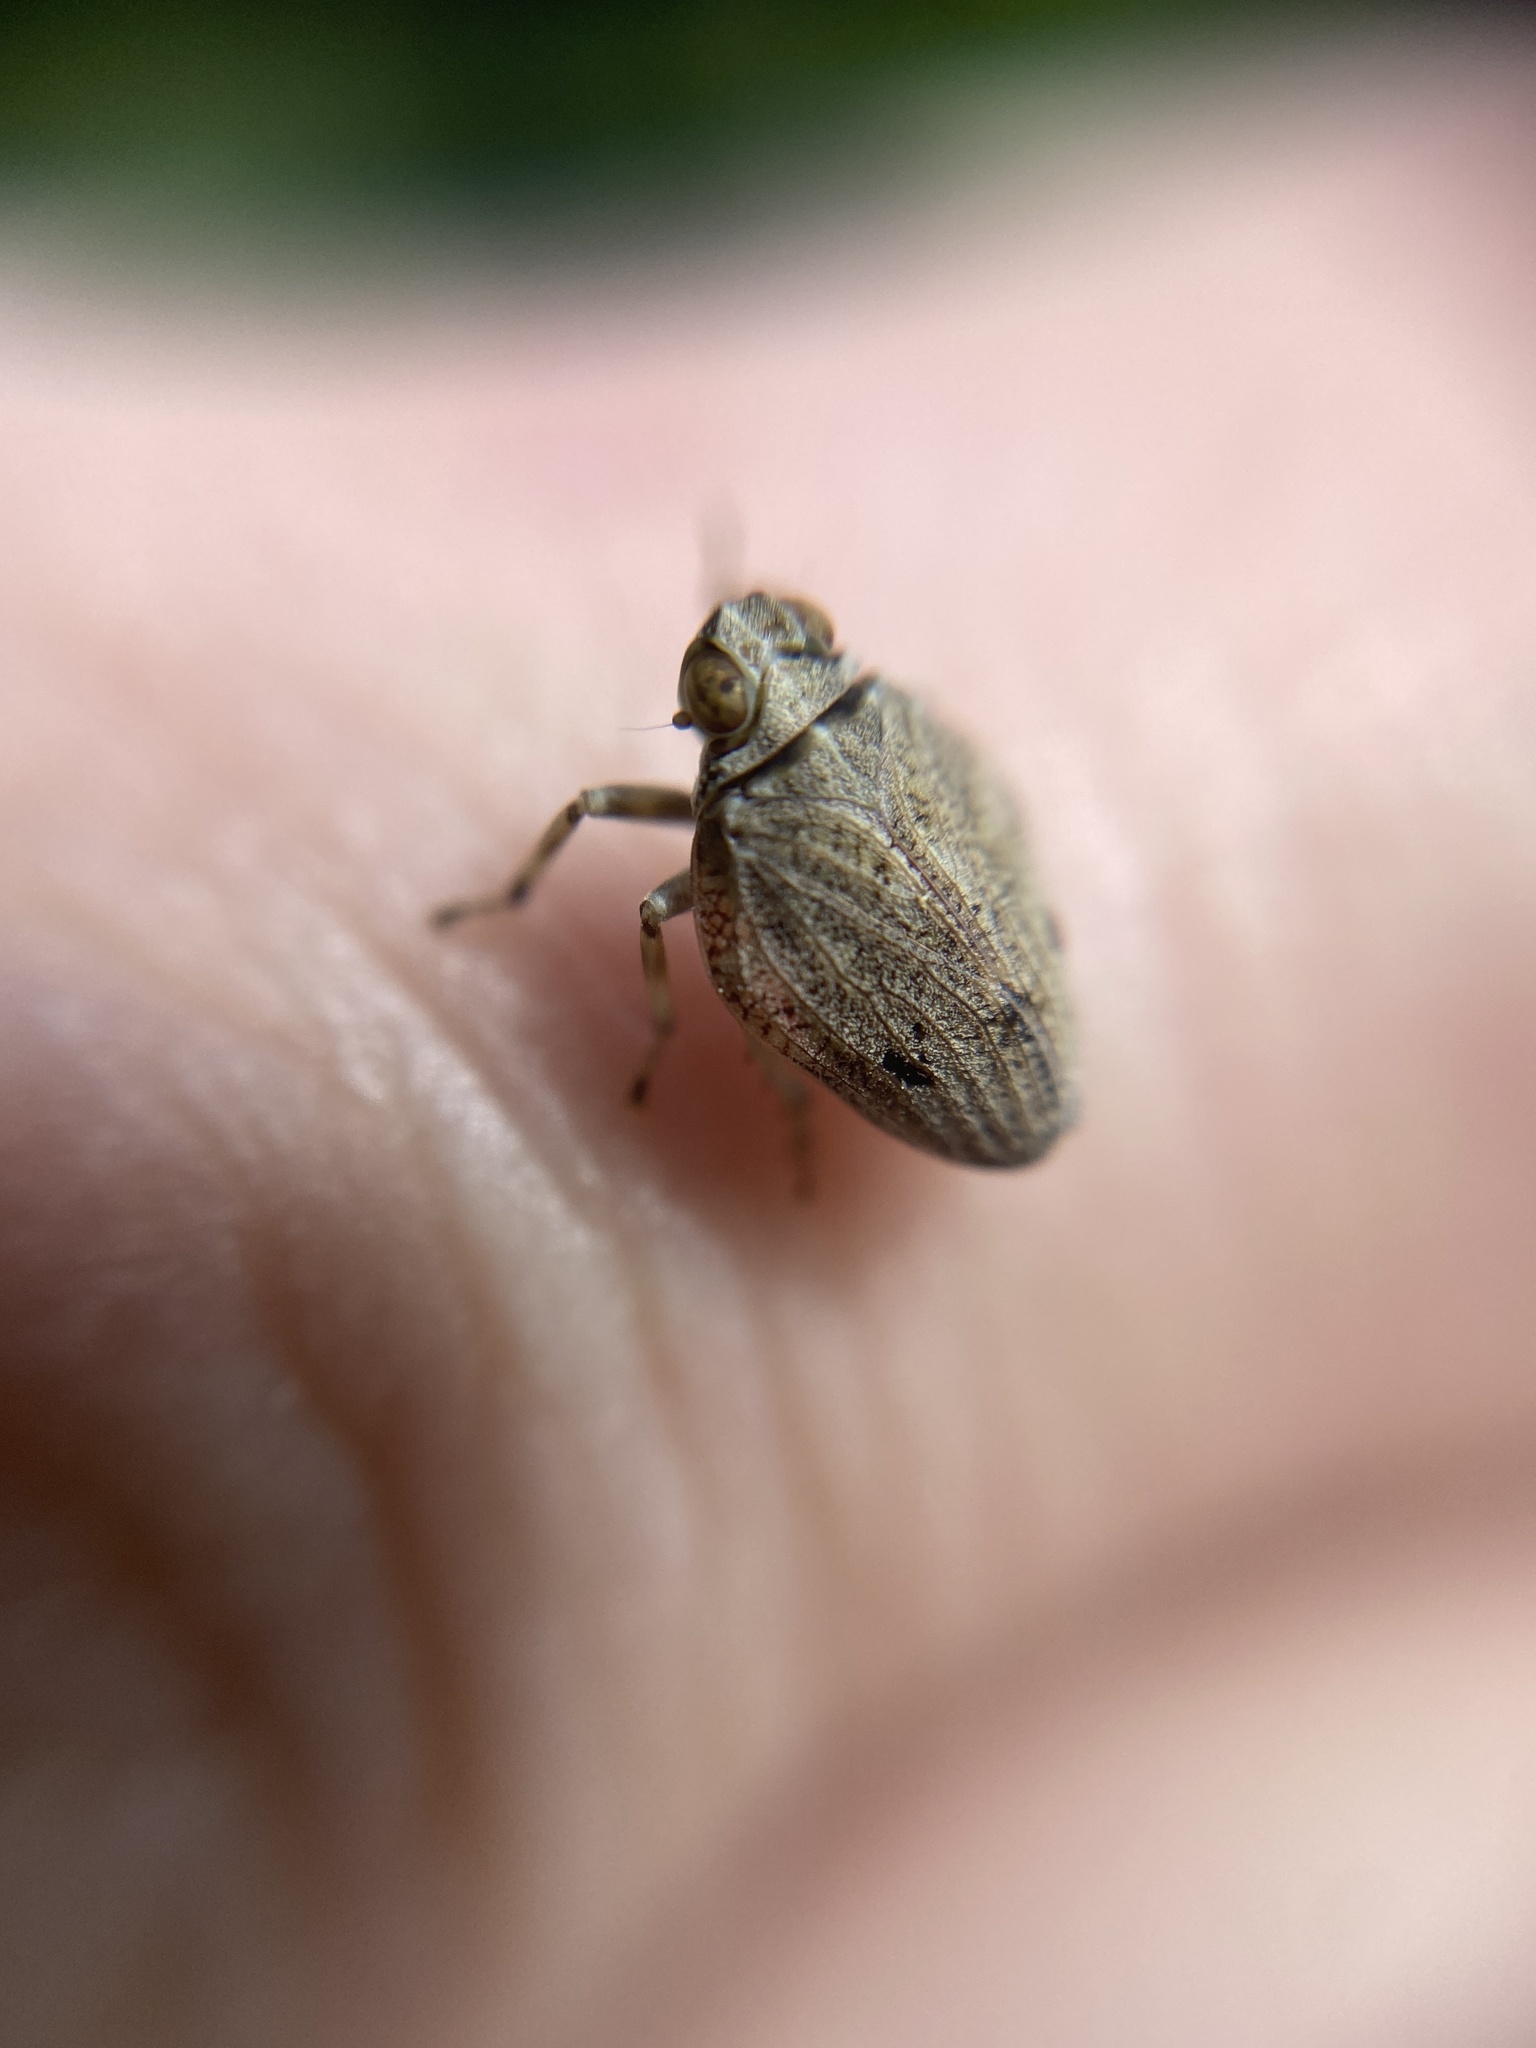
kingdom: Animalia
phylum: Arthropoda
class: Insecta
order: Hemiptera
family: Issidae
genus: Issus
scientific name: Issus coleoptratus
